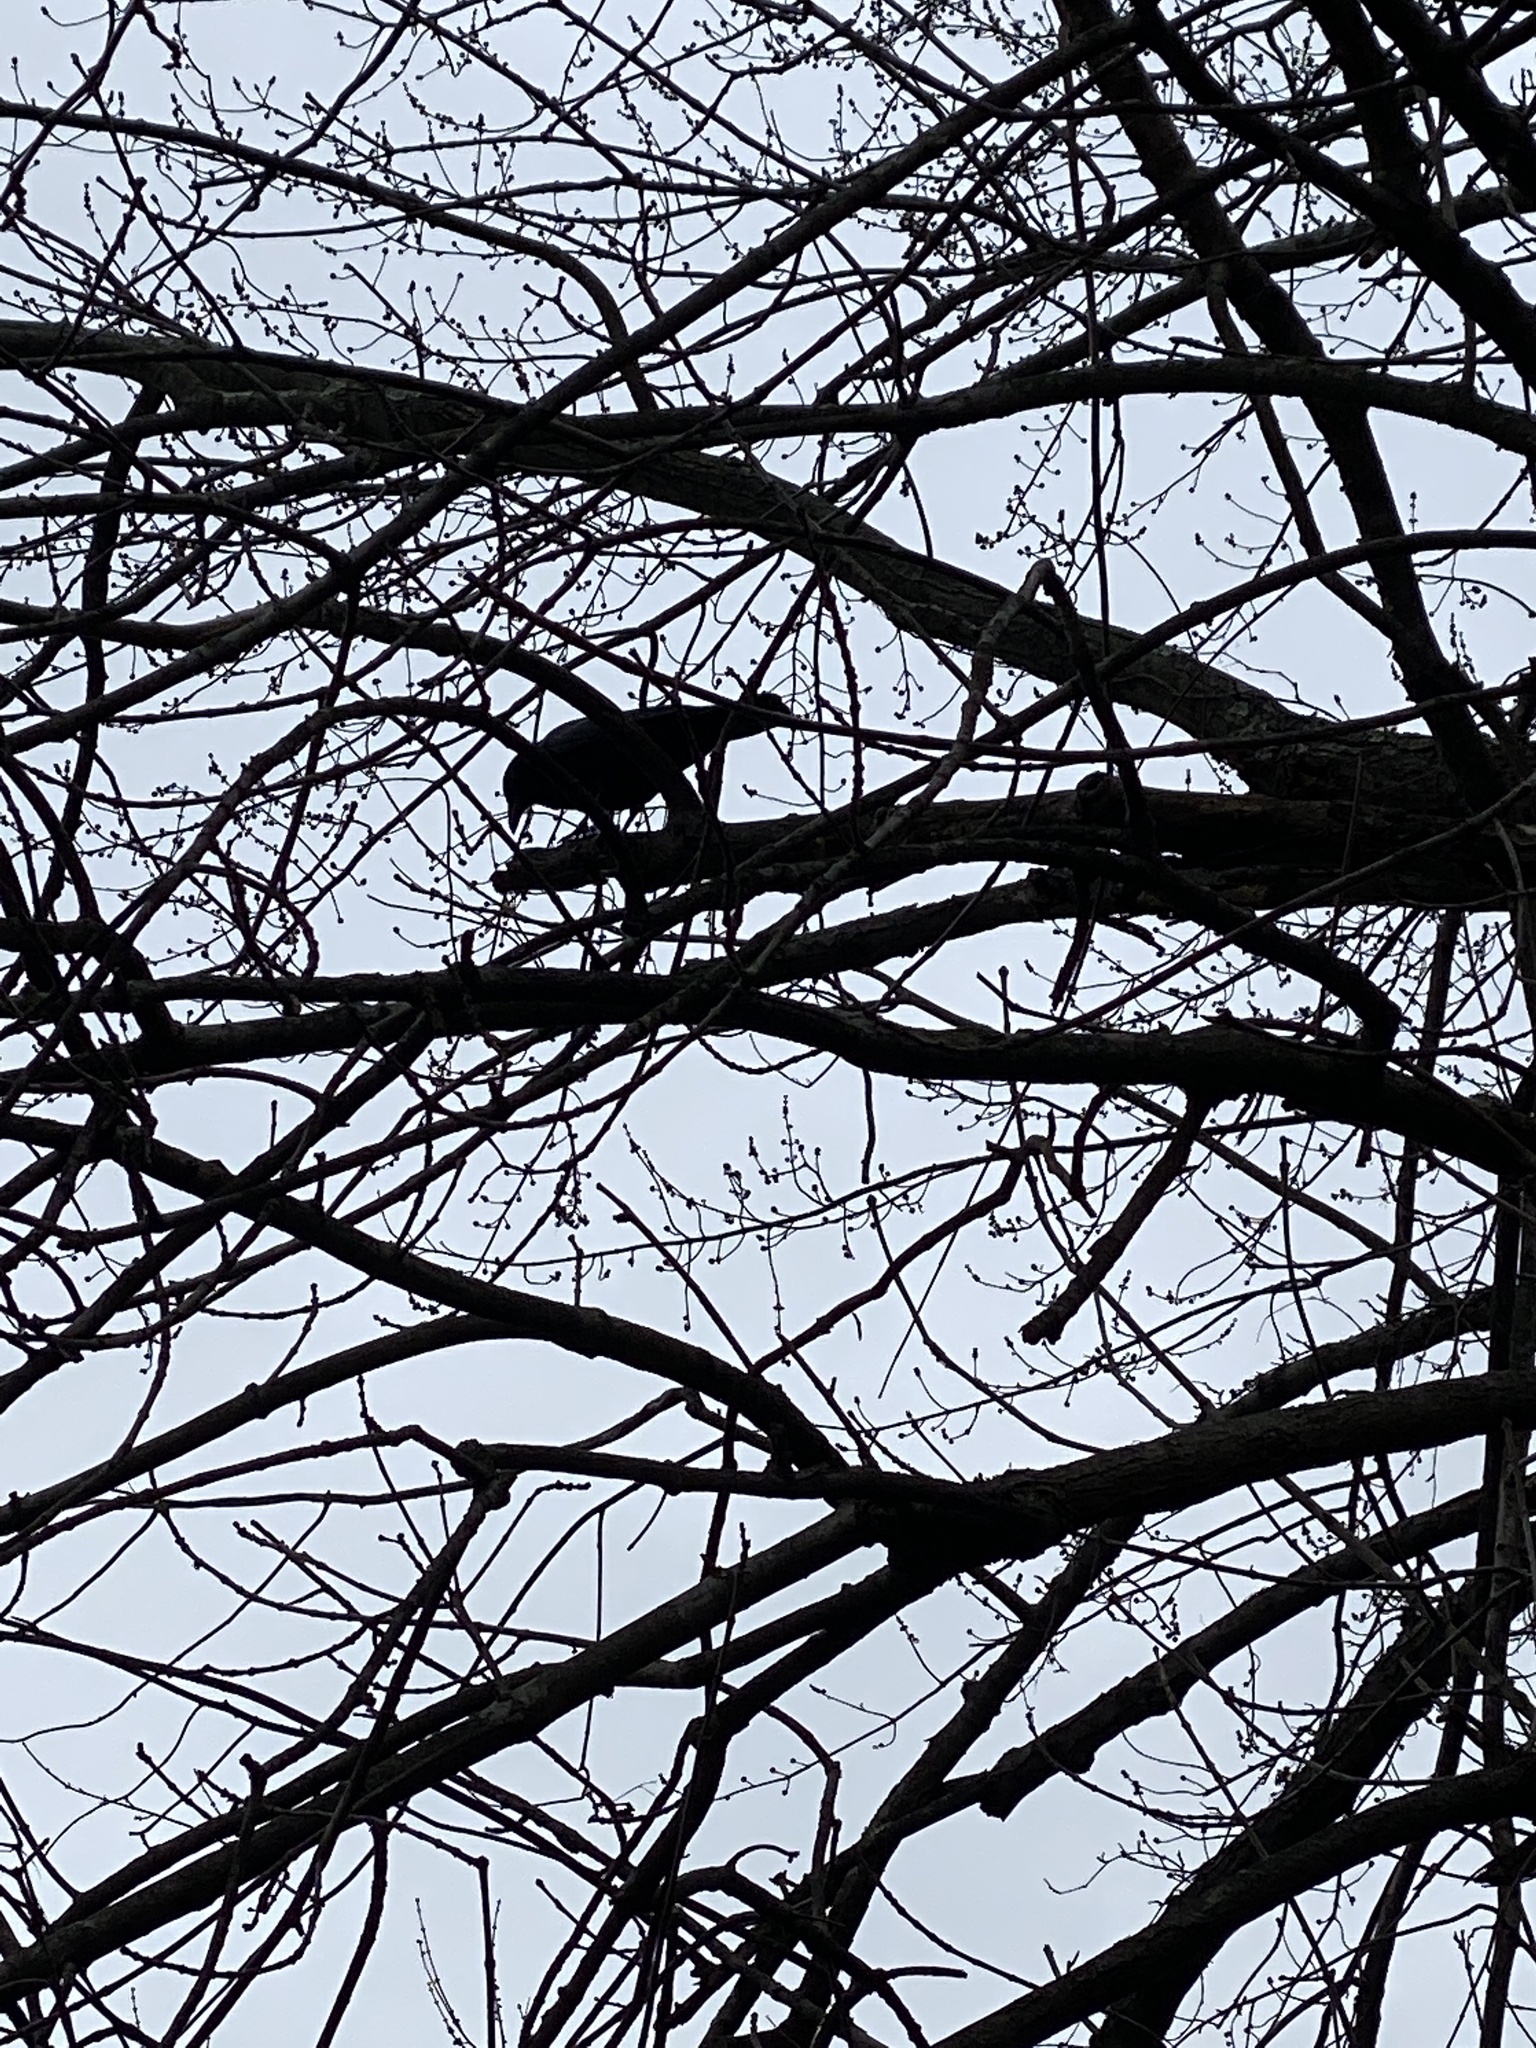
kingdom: Animalia
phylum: Chordata
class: Aves
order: Passeriformes
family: Corvidae
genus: Corvus
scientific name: Corvus brachyrhynchos
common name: American crow
